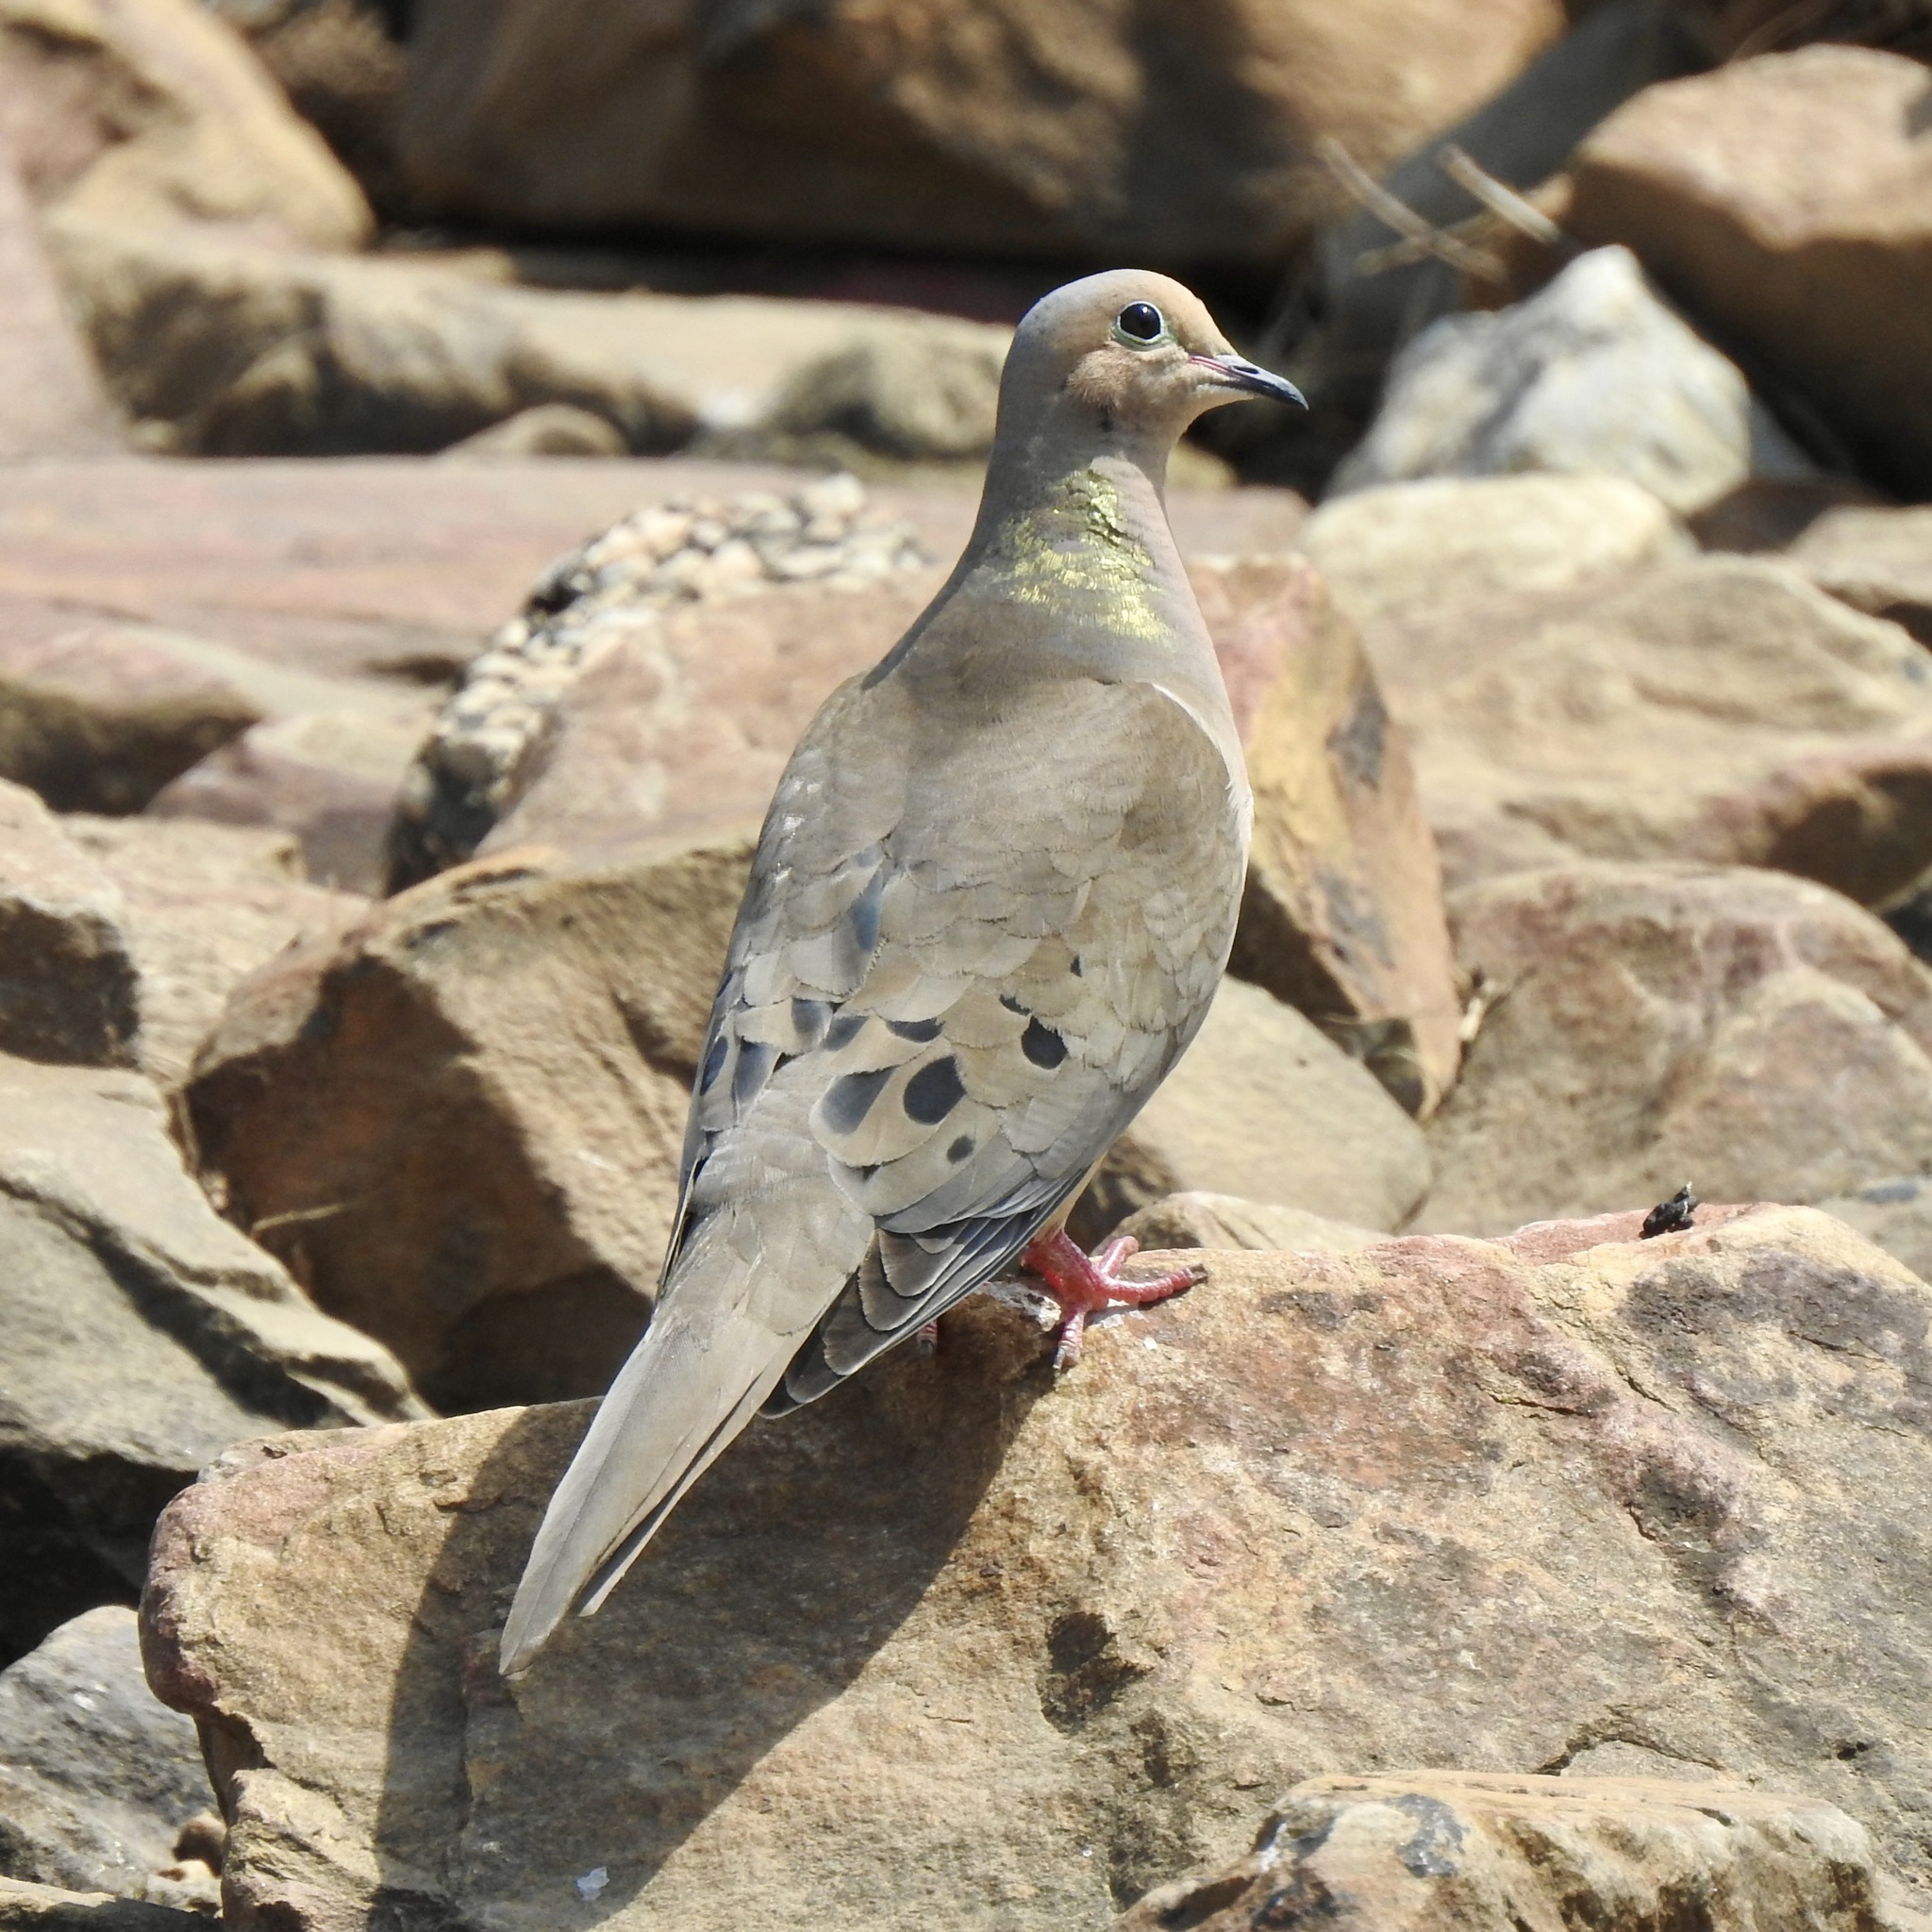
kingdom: Animalia
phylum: Chordata
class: Aves
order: Columbiformes
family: Columbidae
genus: Zenaida
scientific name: Zenaida macroura
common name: Mourning dove
